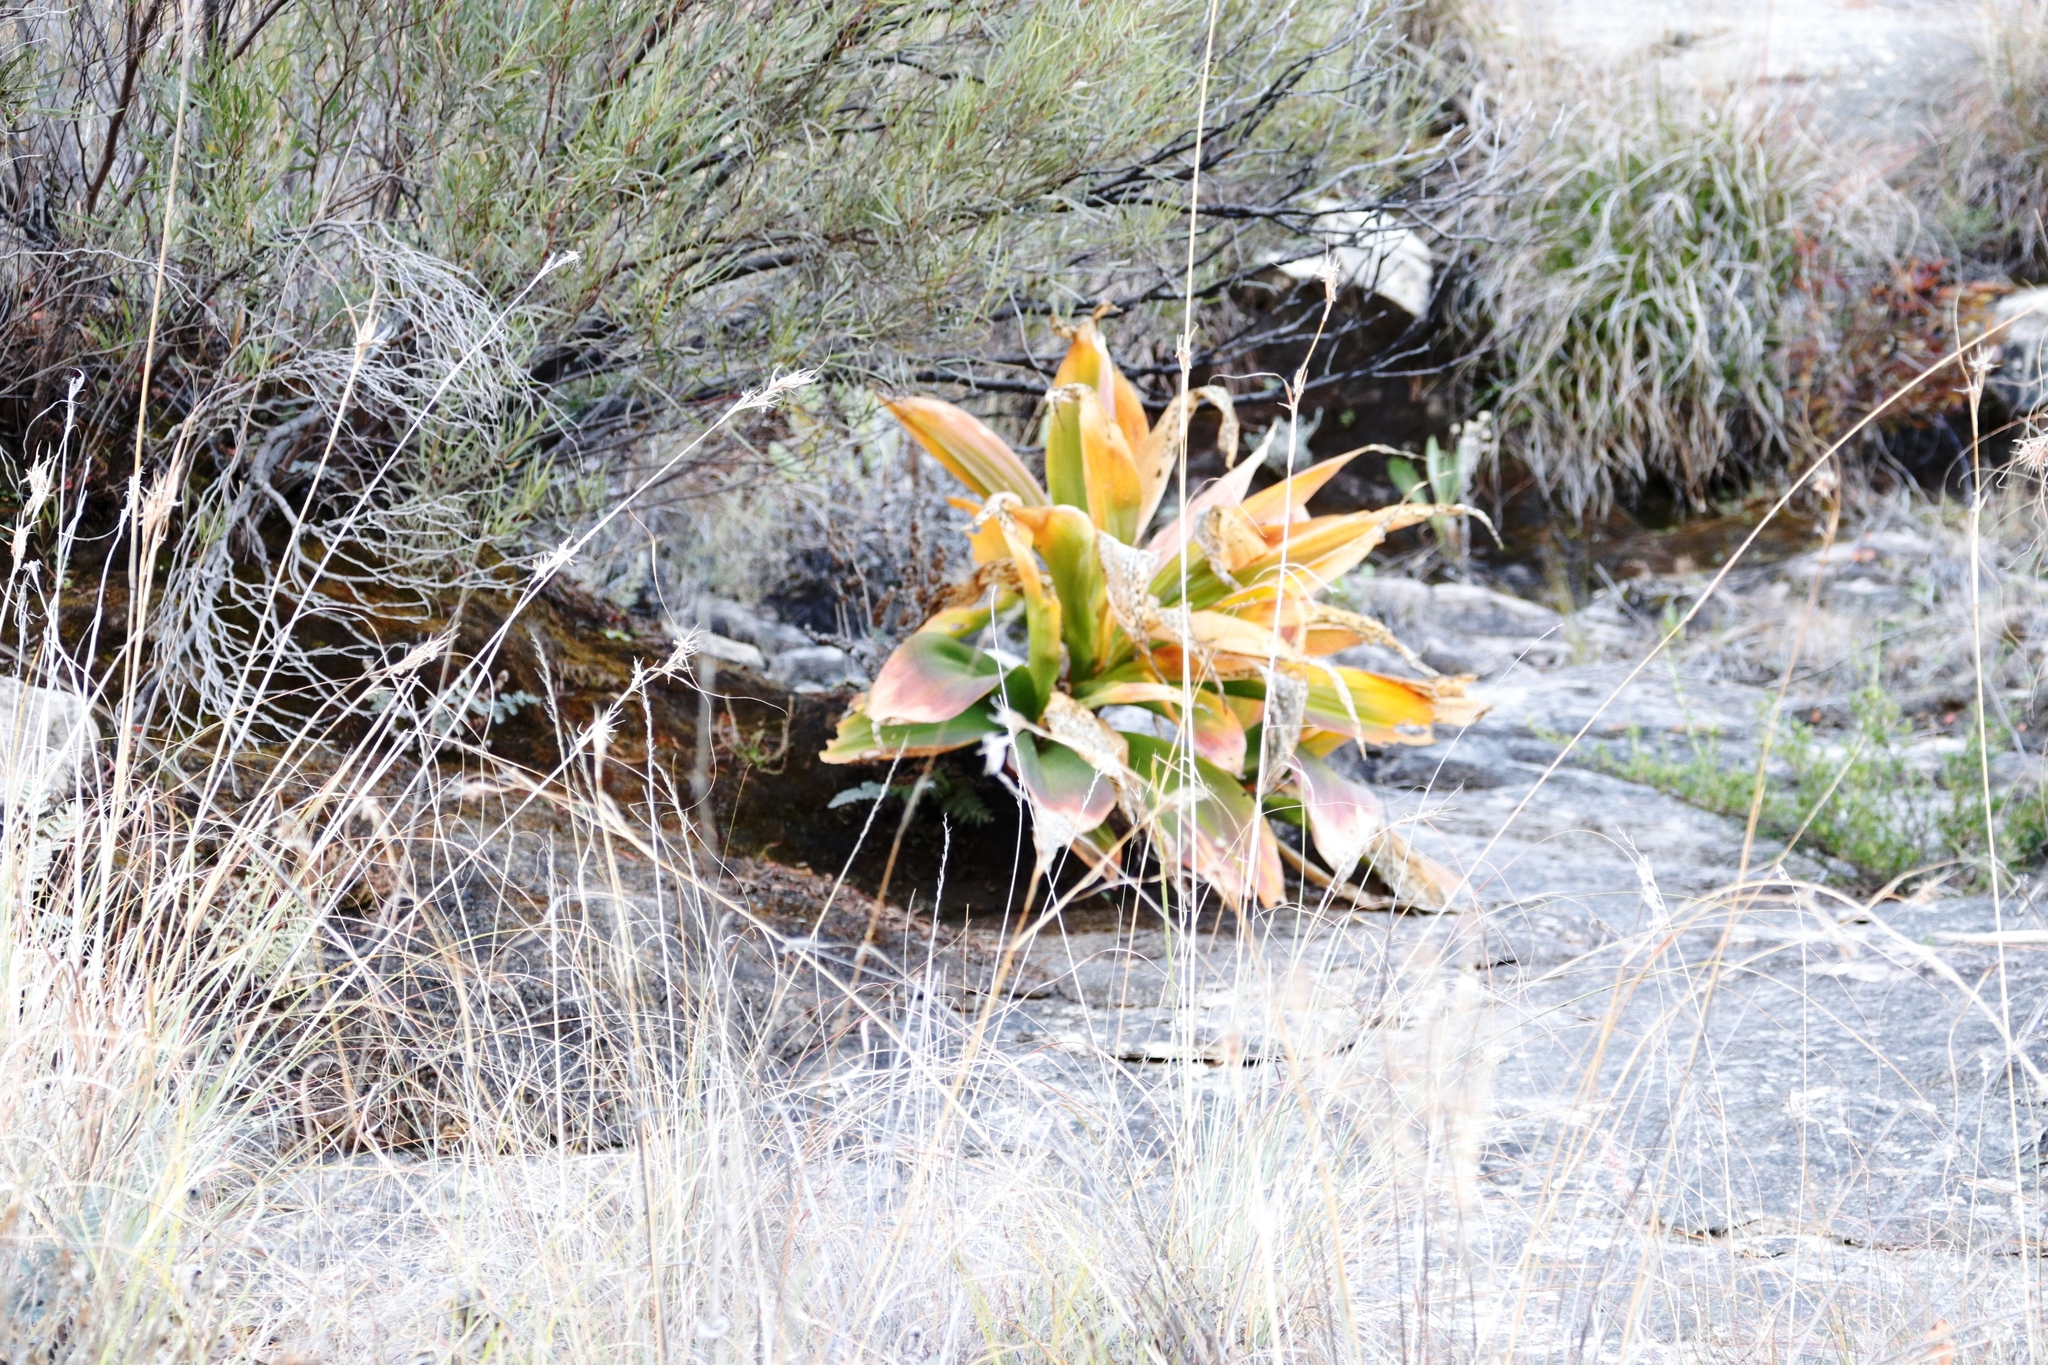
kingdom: Plantae
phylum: Tracheophyta
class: Liliopsida
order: Asparagales
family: Asparagaceae
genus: Merwilla
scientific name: Merwilla plumbea
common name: Blue-squill
